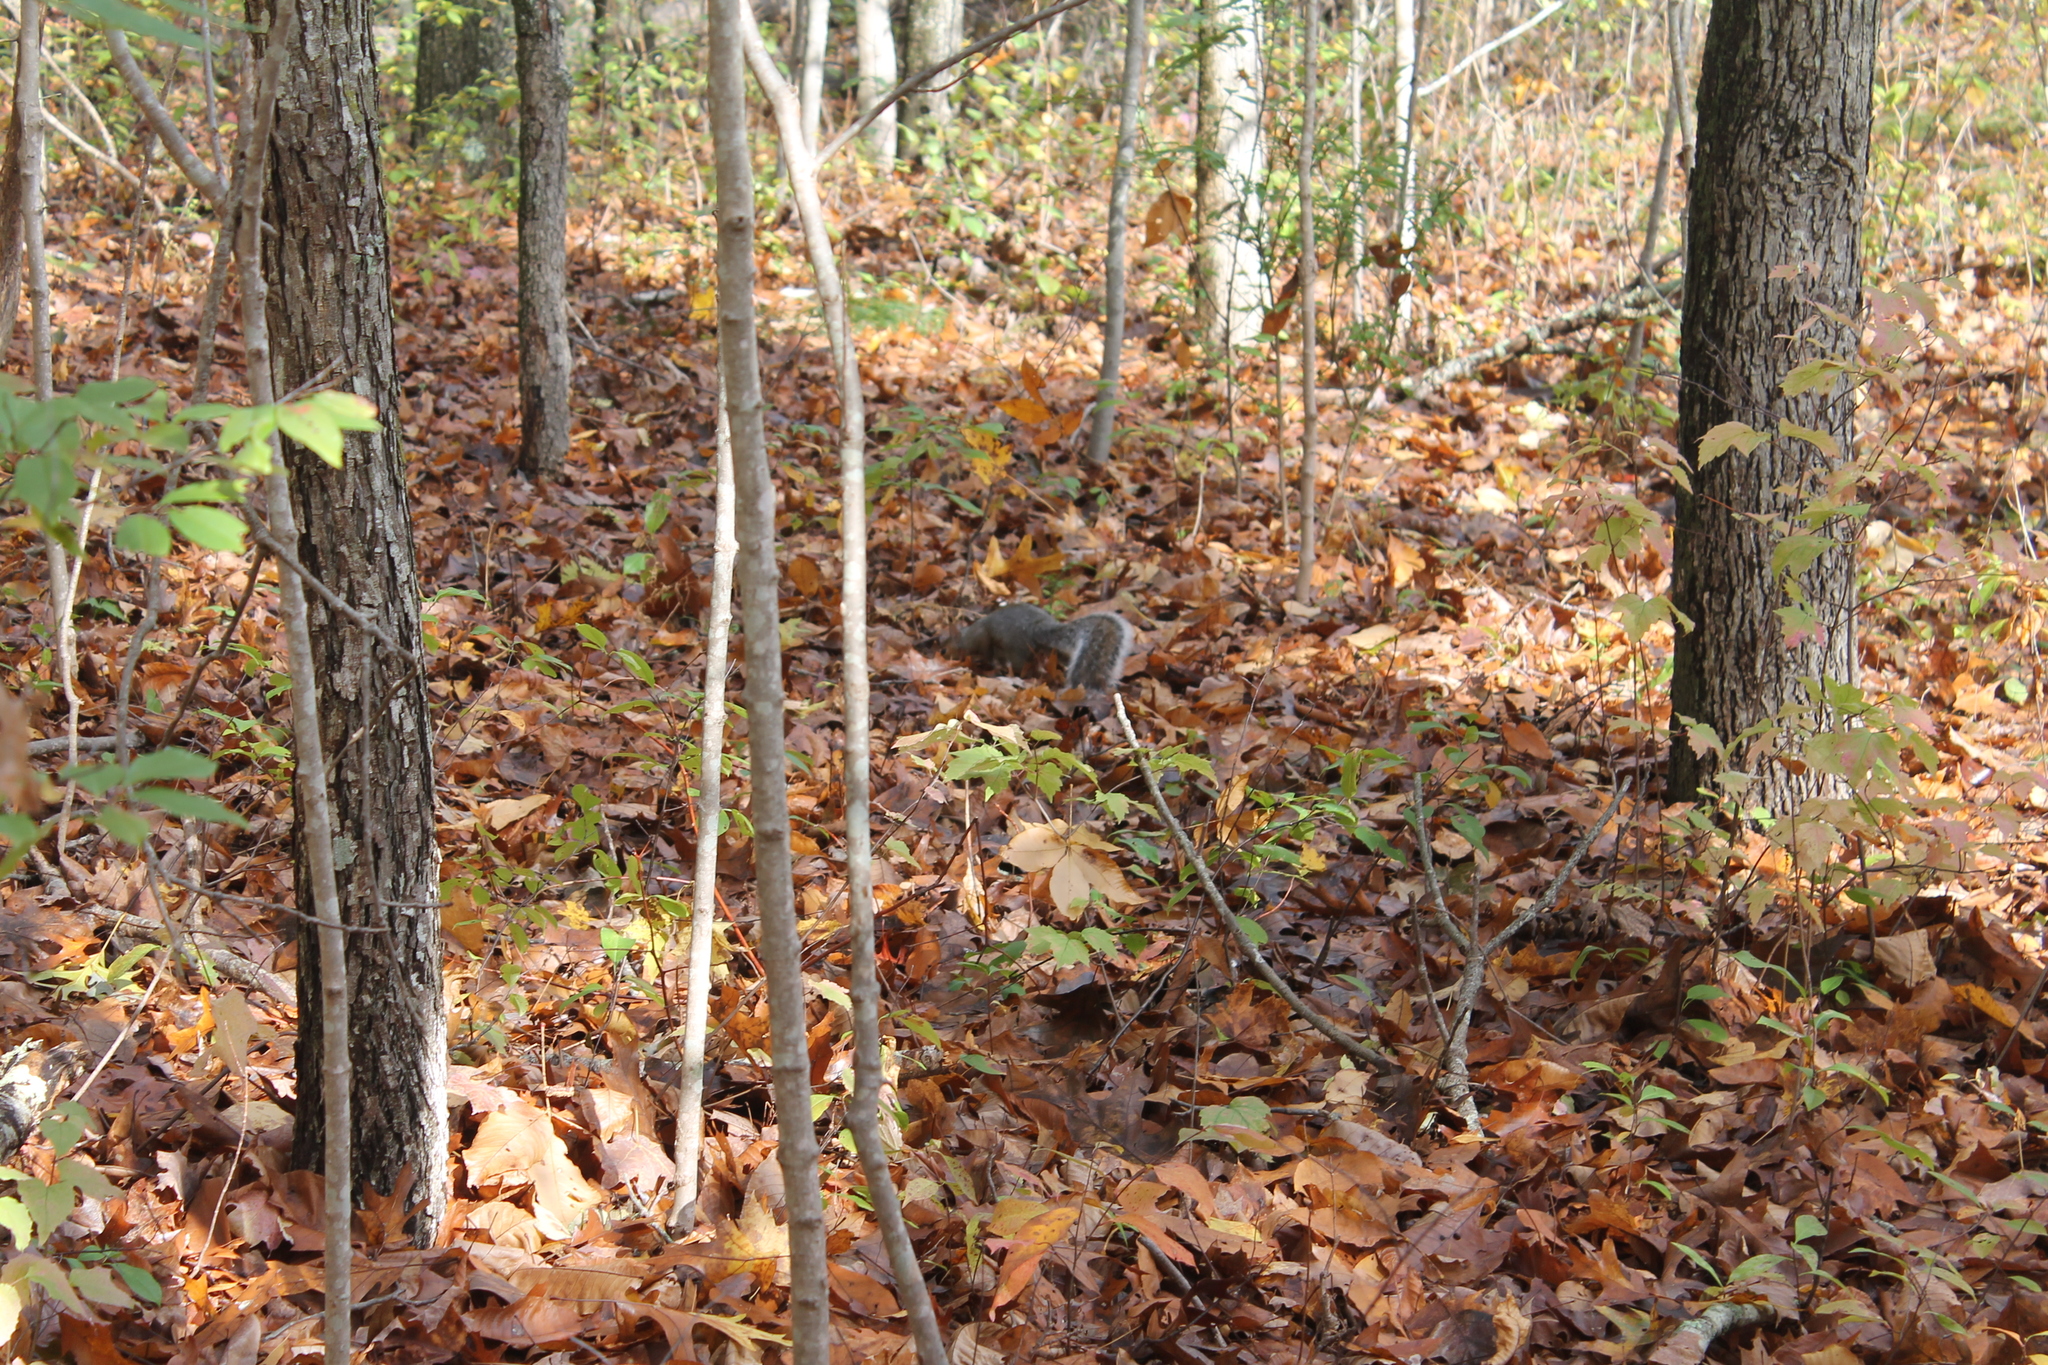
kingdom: Animalia
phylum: Chordata
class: Mammalia
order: Rodentia
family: Sciuridae
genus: Sciurus
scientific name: Sciurus carolinensis
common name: Eastern gray squirrel
